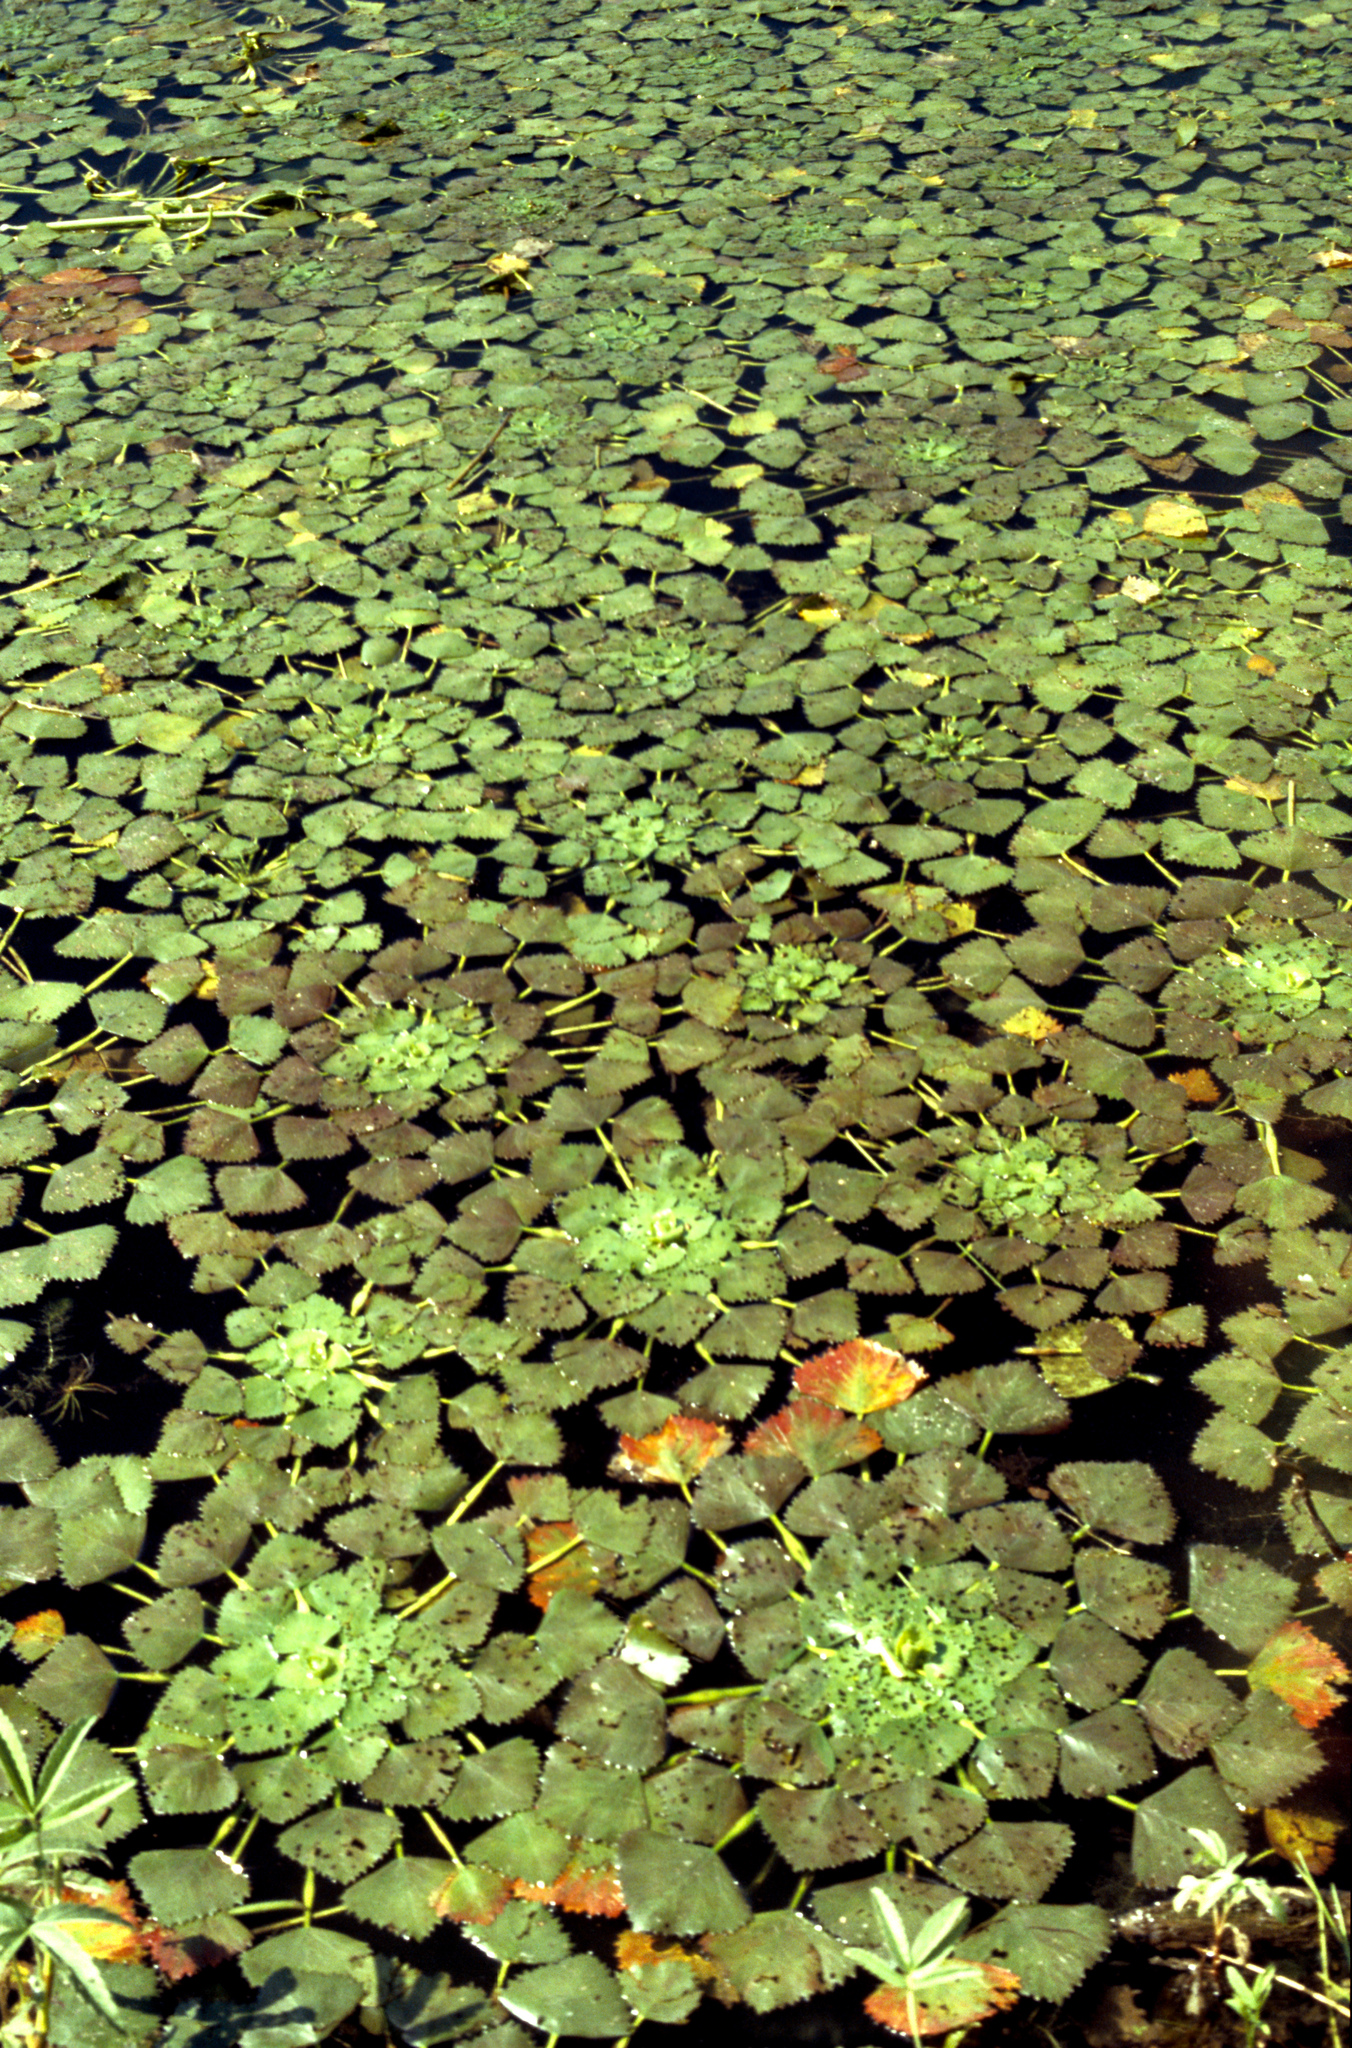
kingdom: Plantae
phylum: Tracheophyta
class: Magnoliopsida
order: Myrtales
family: Lythraceae
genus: Trapa
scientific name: Trapa natans
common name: Water chestnut
